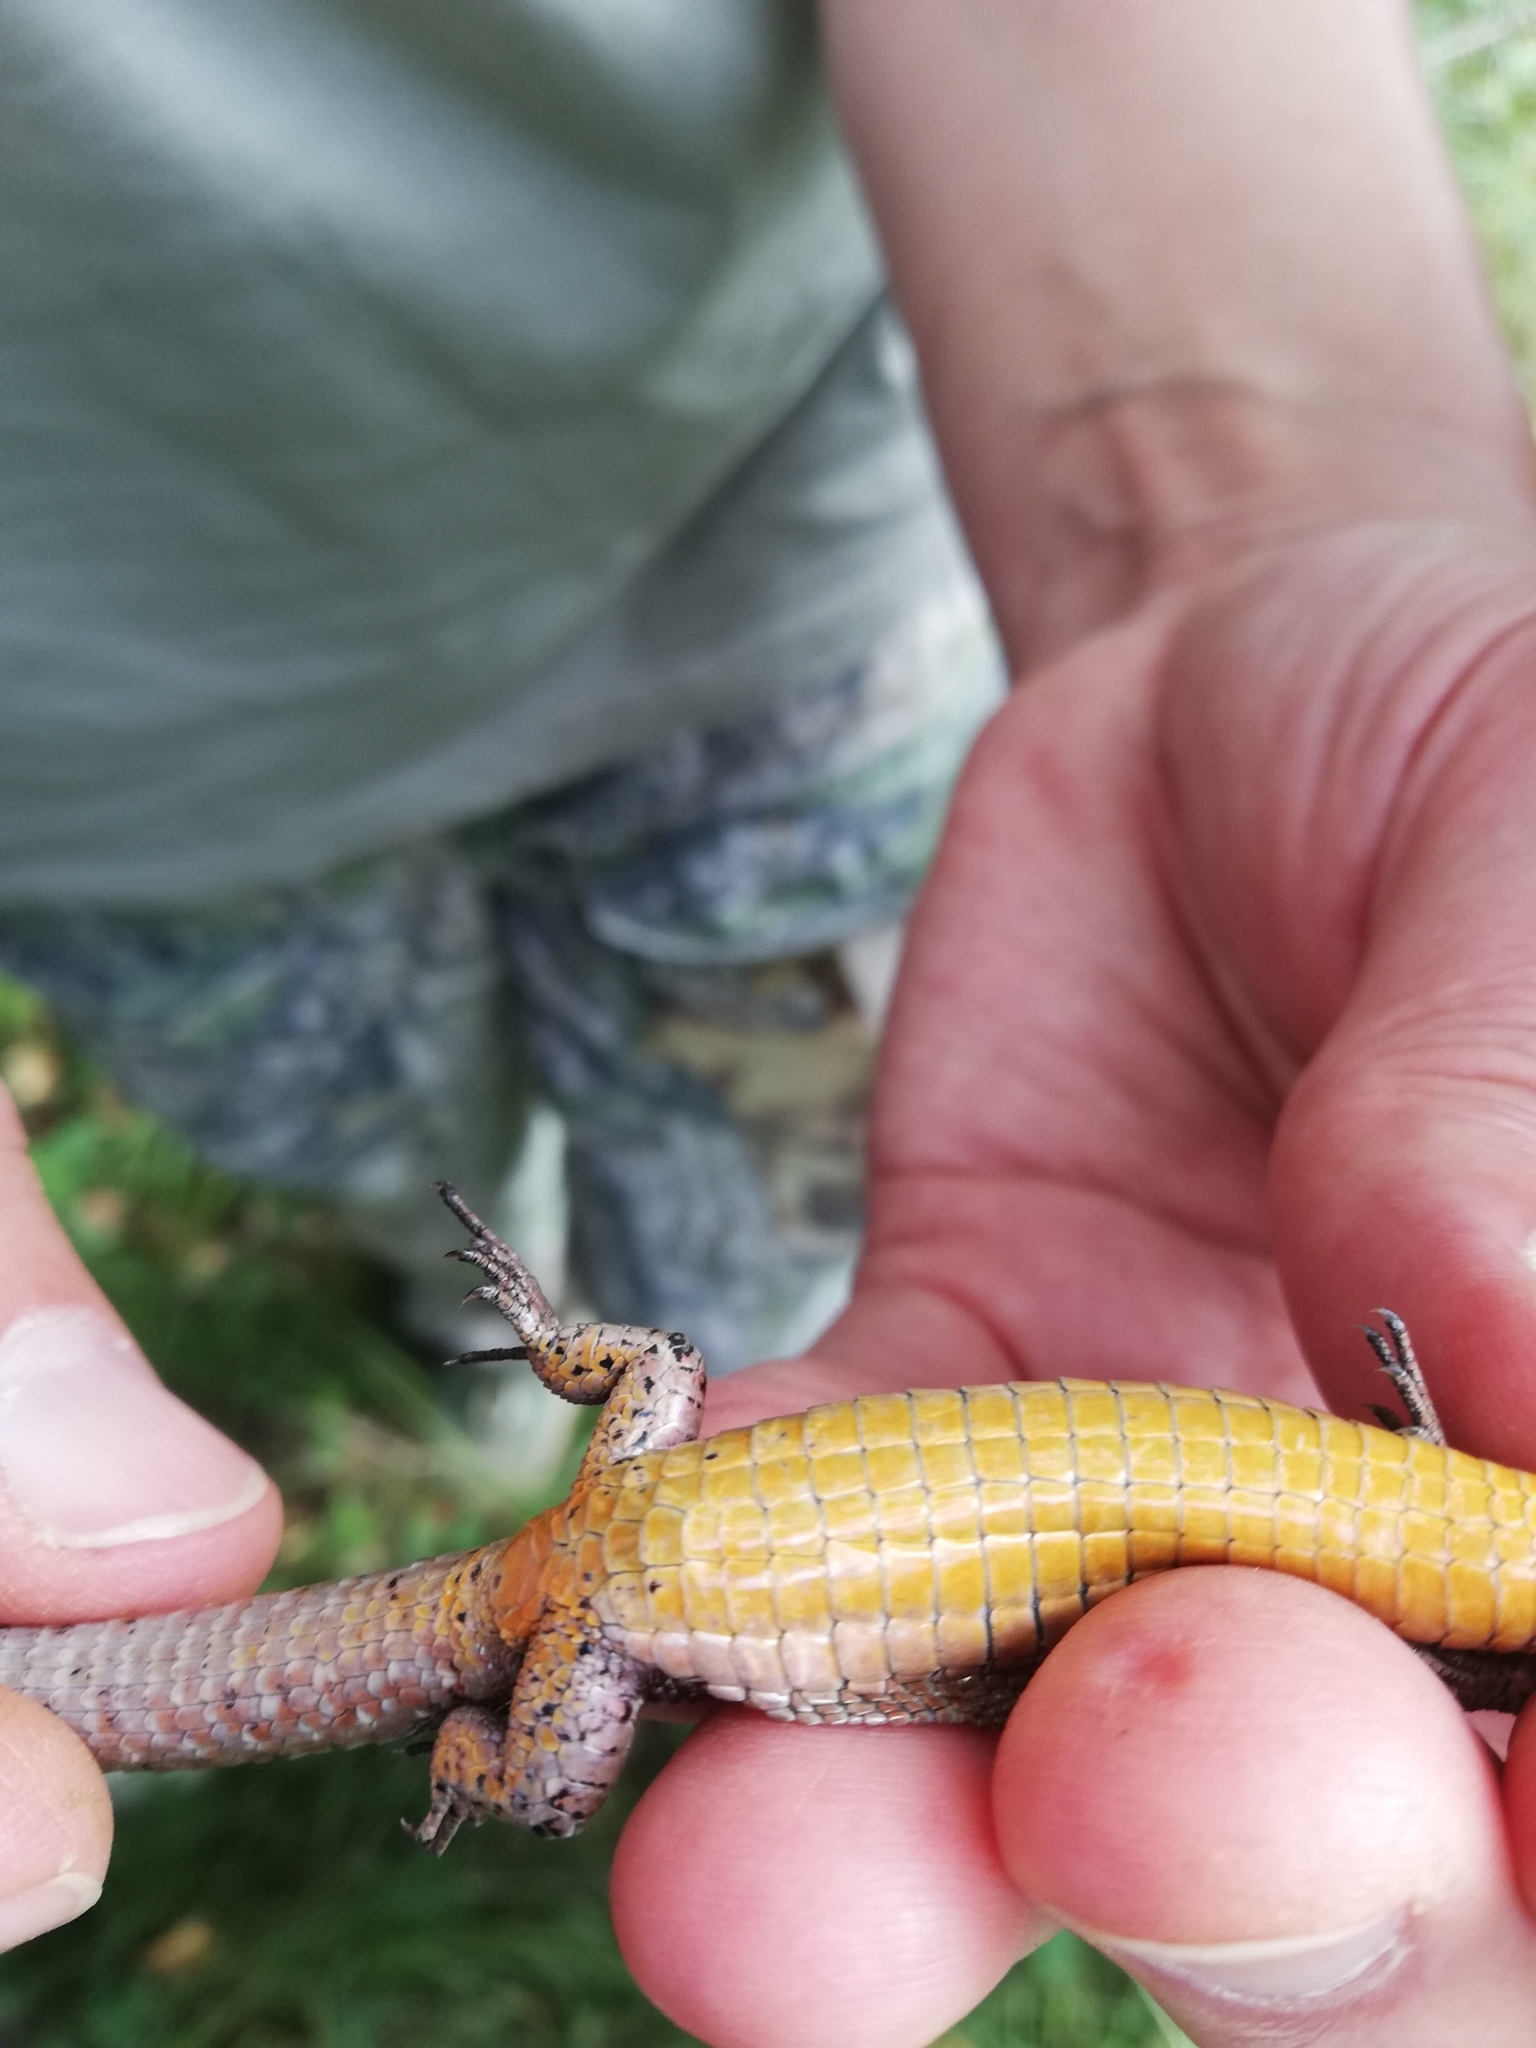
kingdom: Animalia
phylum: Chordata
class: Squamata
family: Lacertidae
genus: Zootoca
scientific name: Zootoca vivipara
